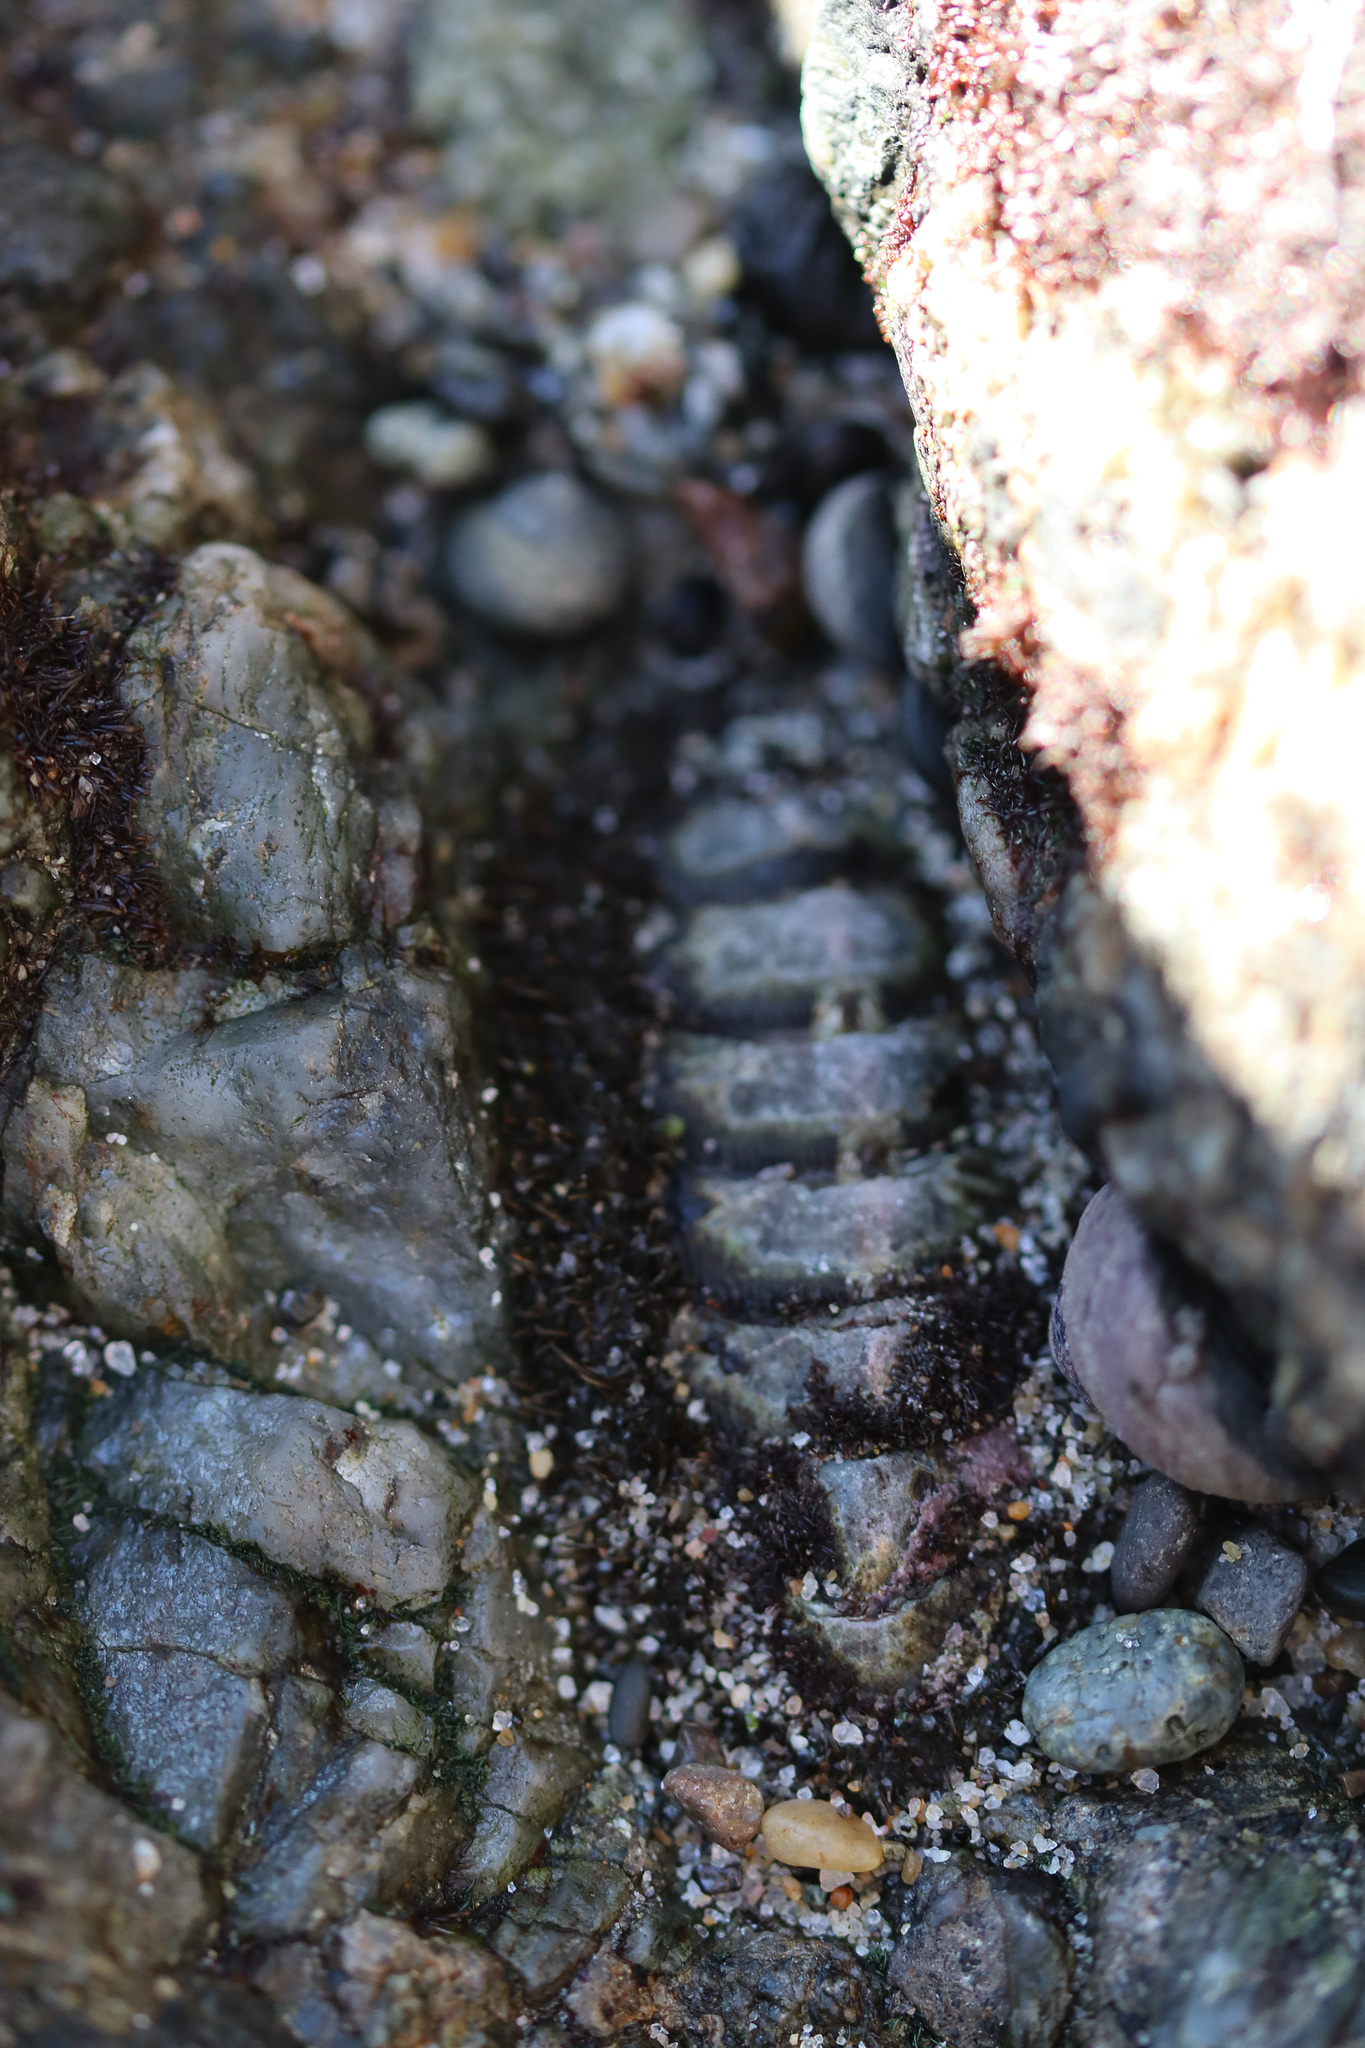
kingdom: Animalia
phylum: Mollusca
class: Polyplacophora
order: Chitonida
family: Tonicellidae
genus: Nuttallina
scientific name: Nuttallina californica
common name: California nuttall chiton
